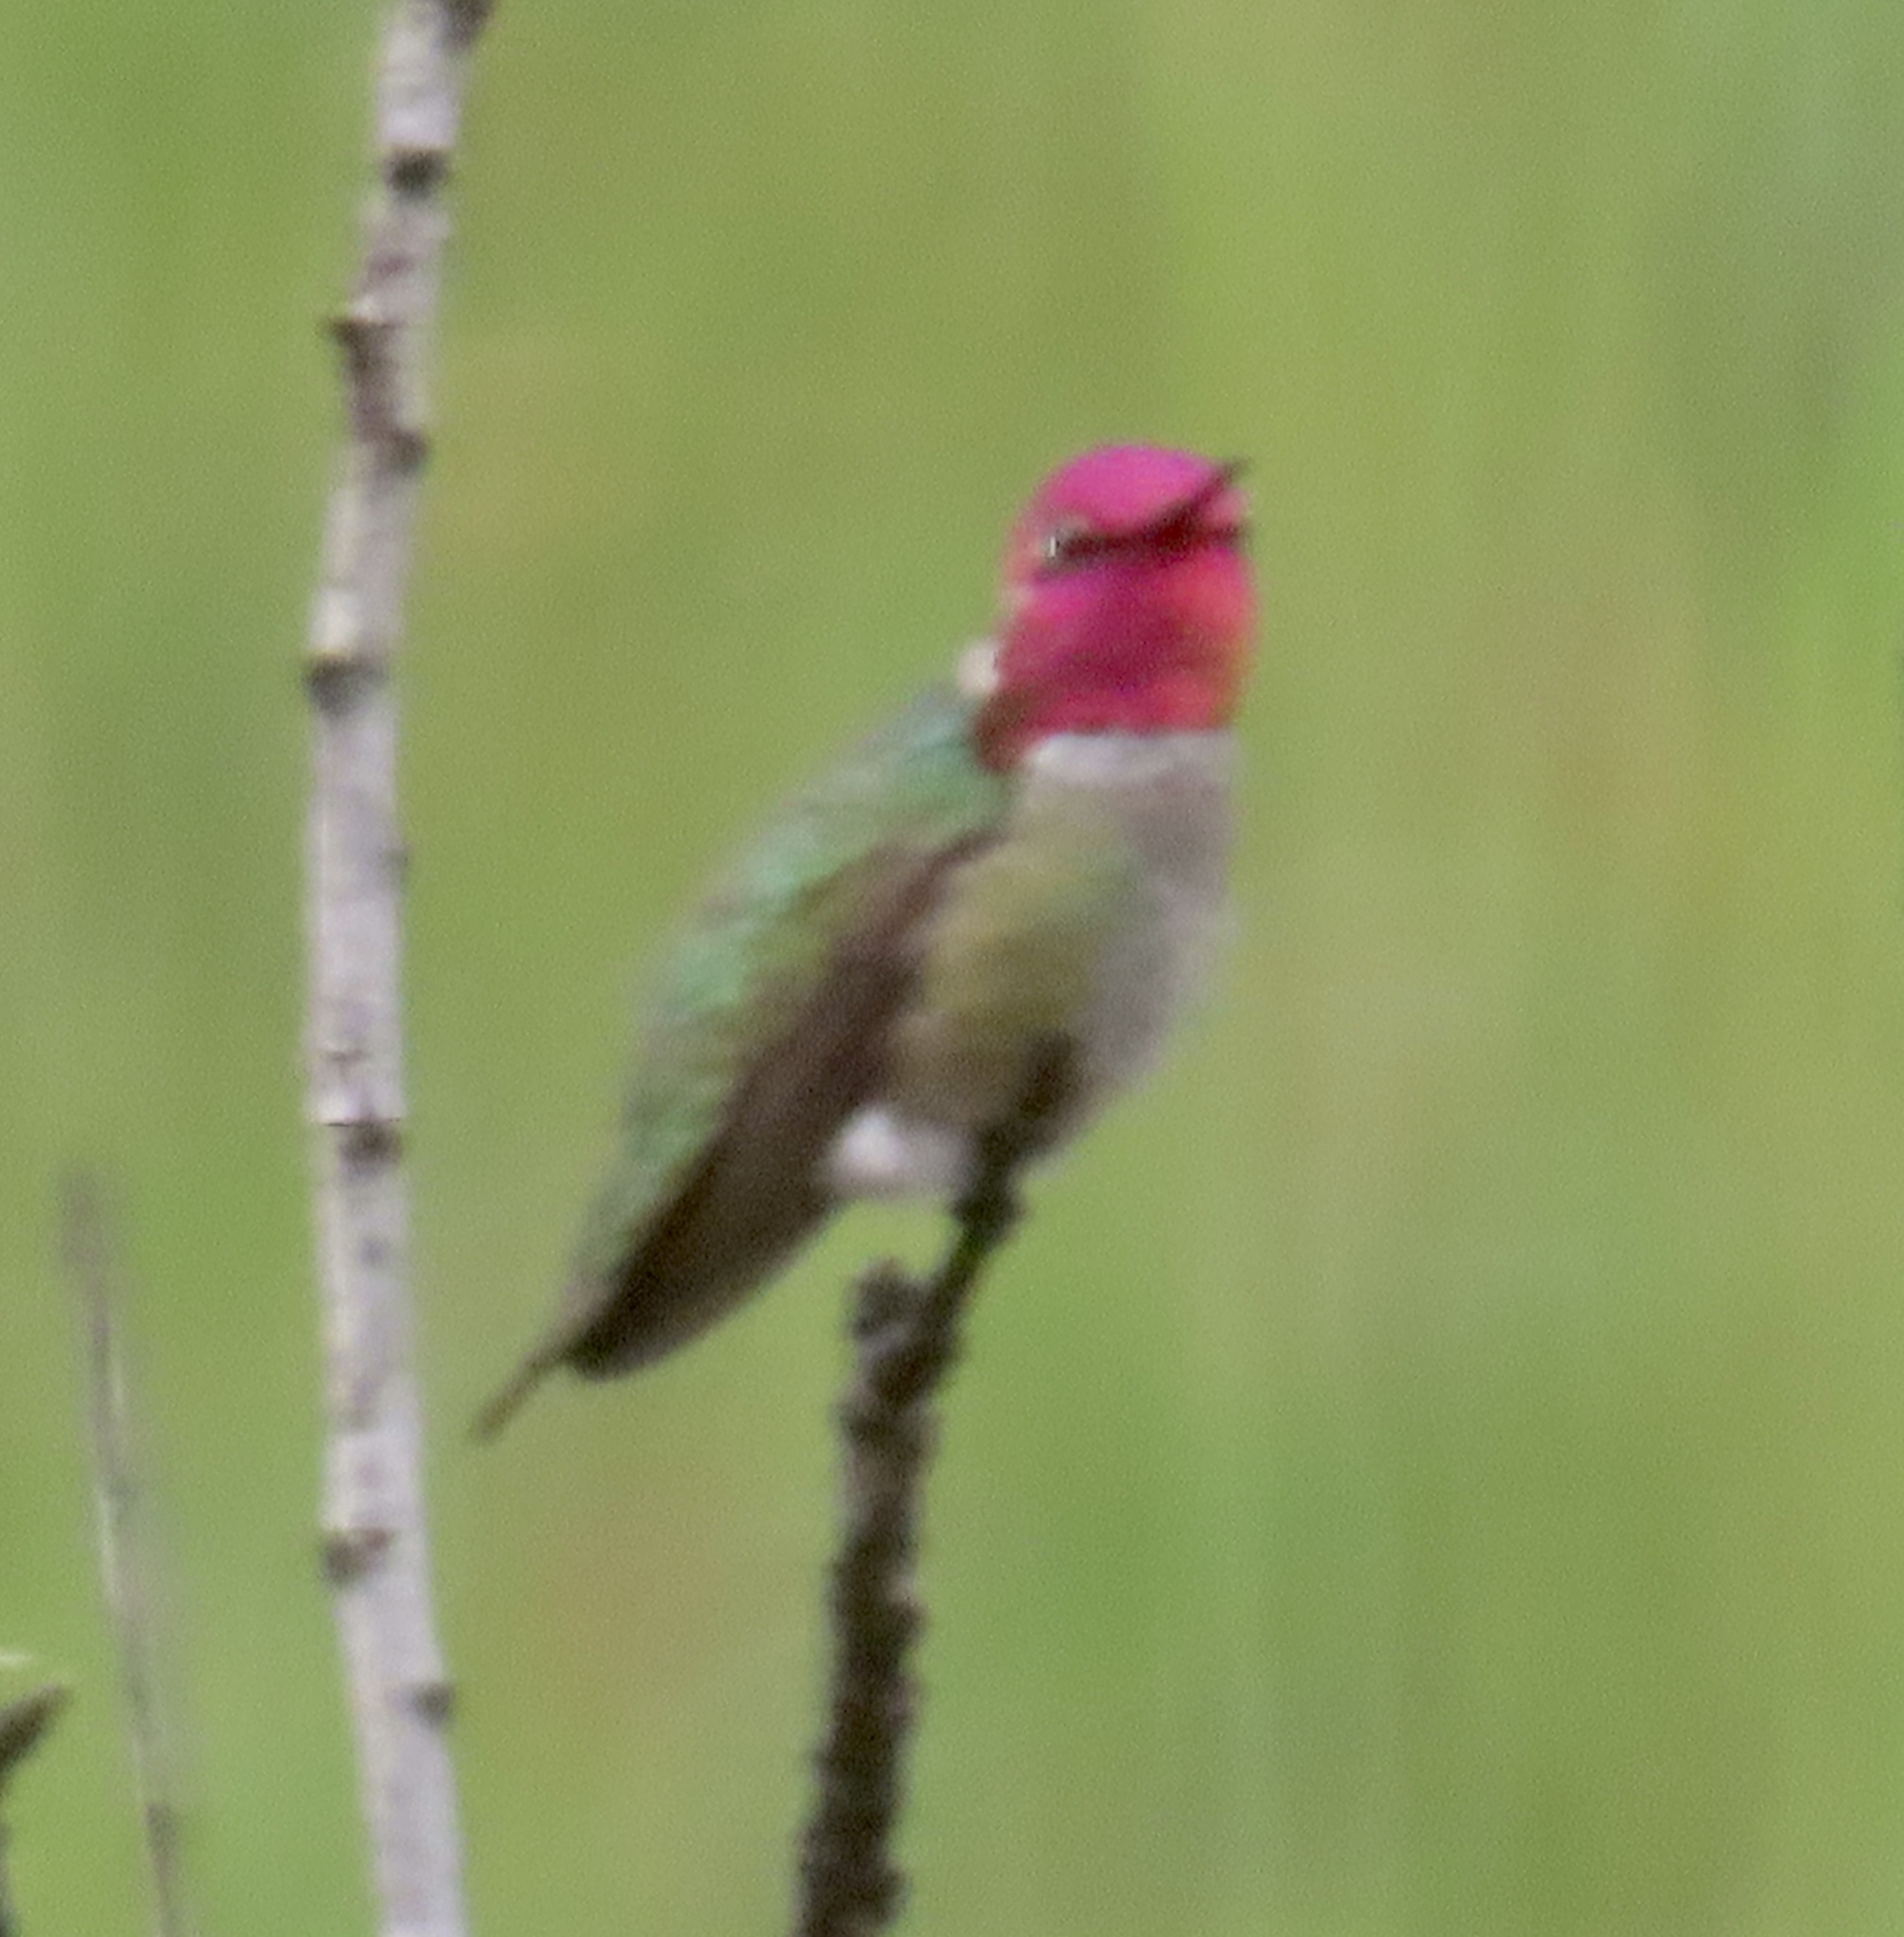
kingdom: Animalia
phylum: Chordata
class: Aves
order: Apodiformes
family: Trochilidae
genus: Calypte
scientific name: Calypte anna
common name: Anna's hummingbird
